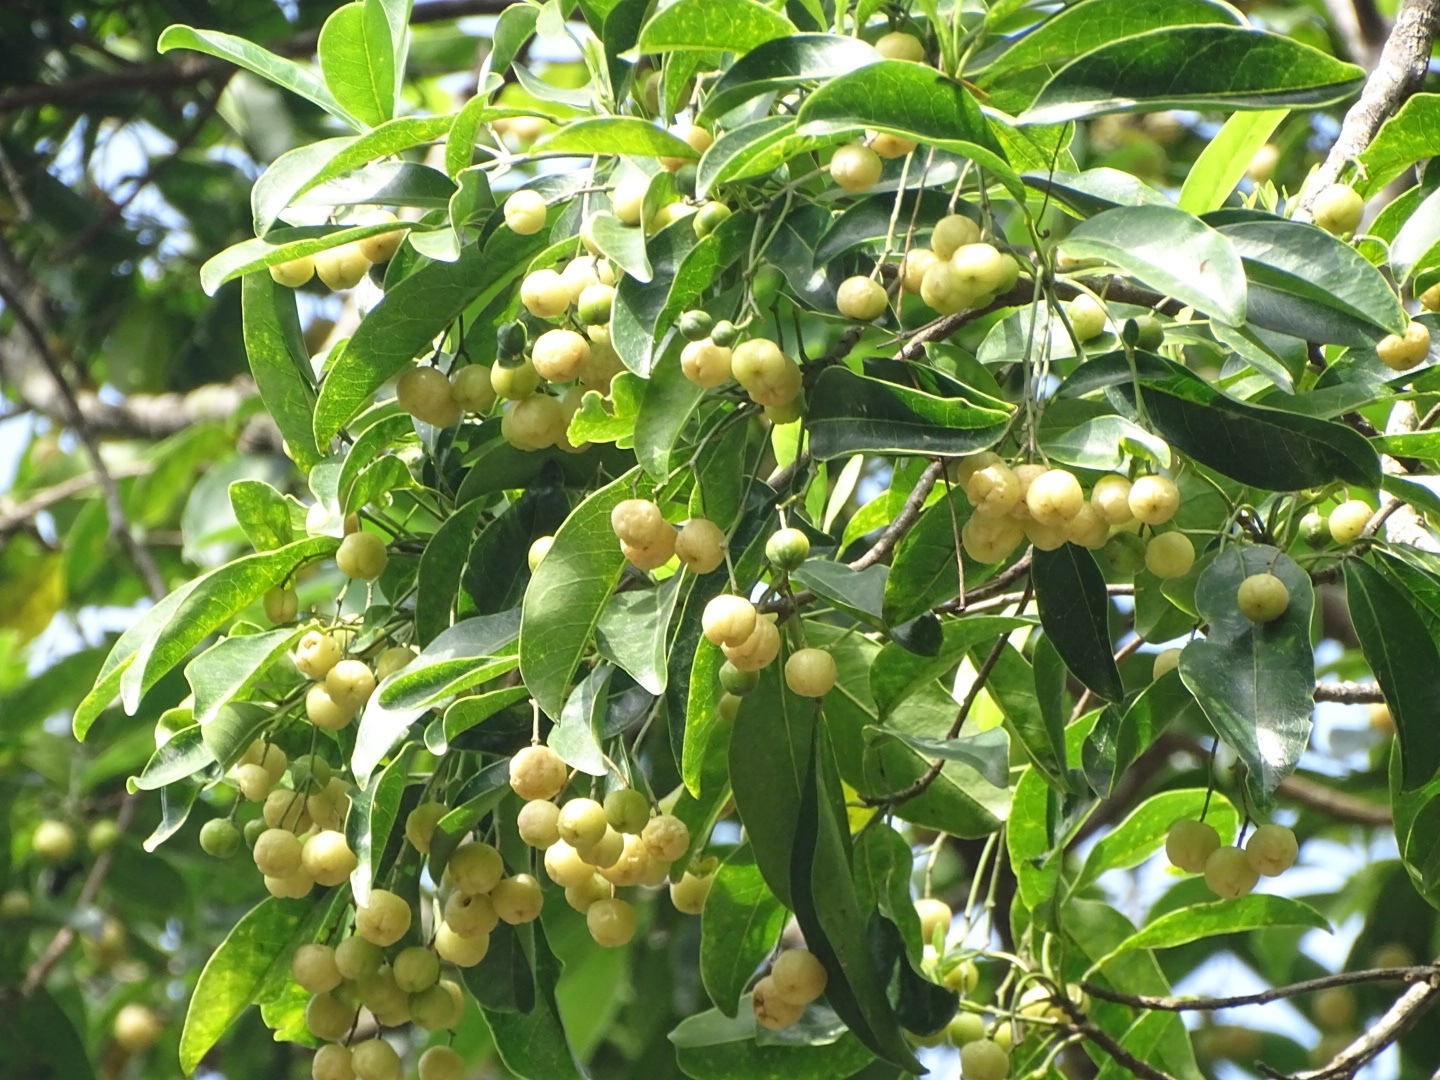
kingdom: Plantae
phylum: Tracheophyta
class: Magnoliopsida
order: Sapindales
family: Rutaceae
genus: Acronychia
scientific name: Acronychia pedunculata
